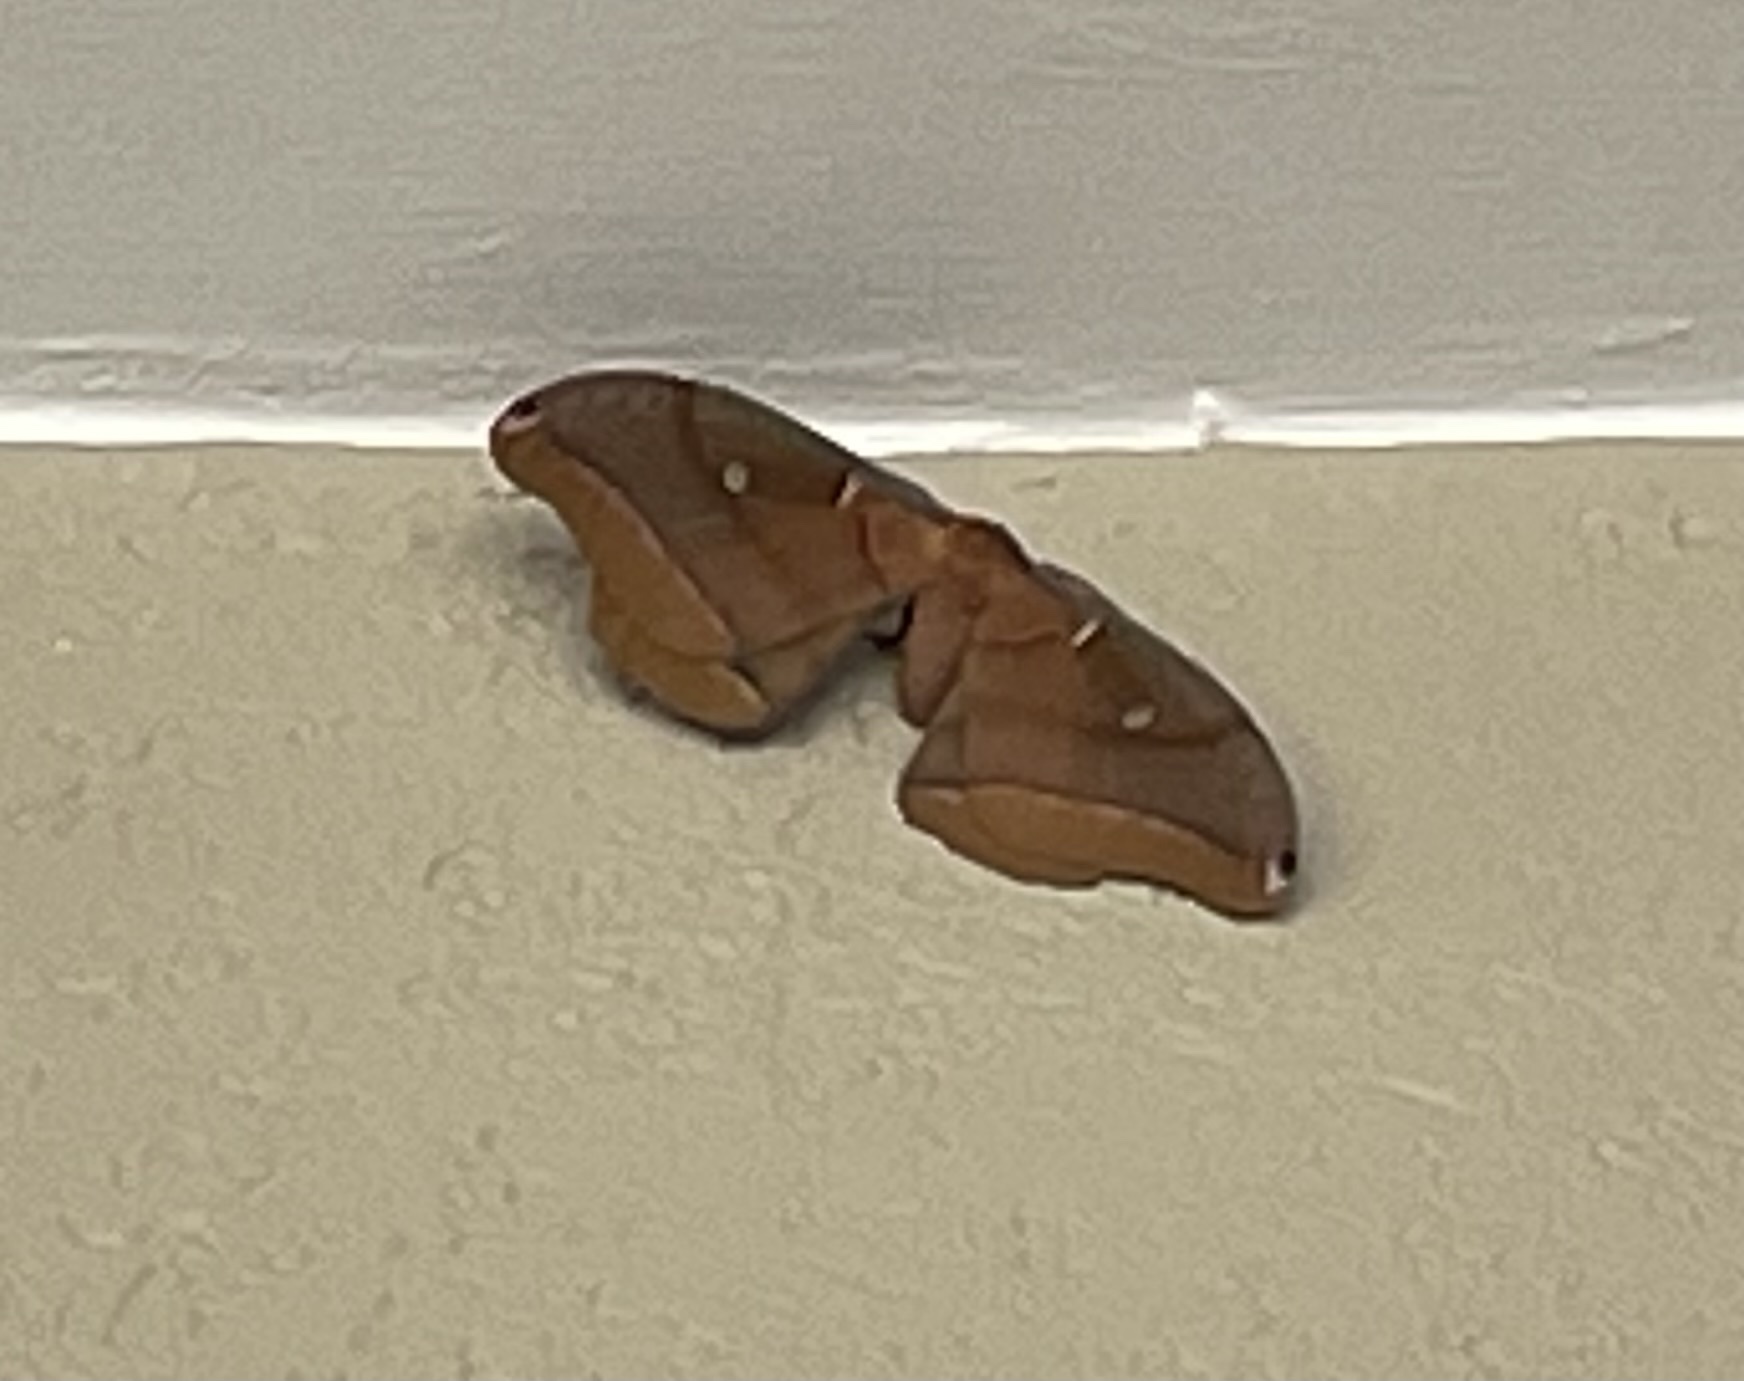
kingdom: Animalia
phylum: Arthropoda
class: Insecta
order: Lepidoptera
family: Saturniidae
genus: Antheraea
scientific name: Antheraea polyphemus
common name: Polyphemus moth
